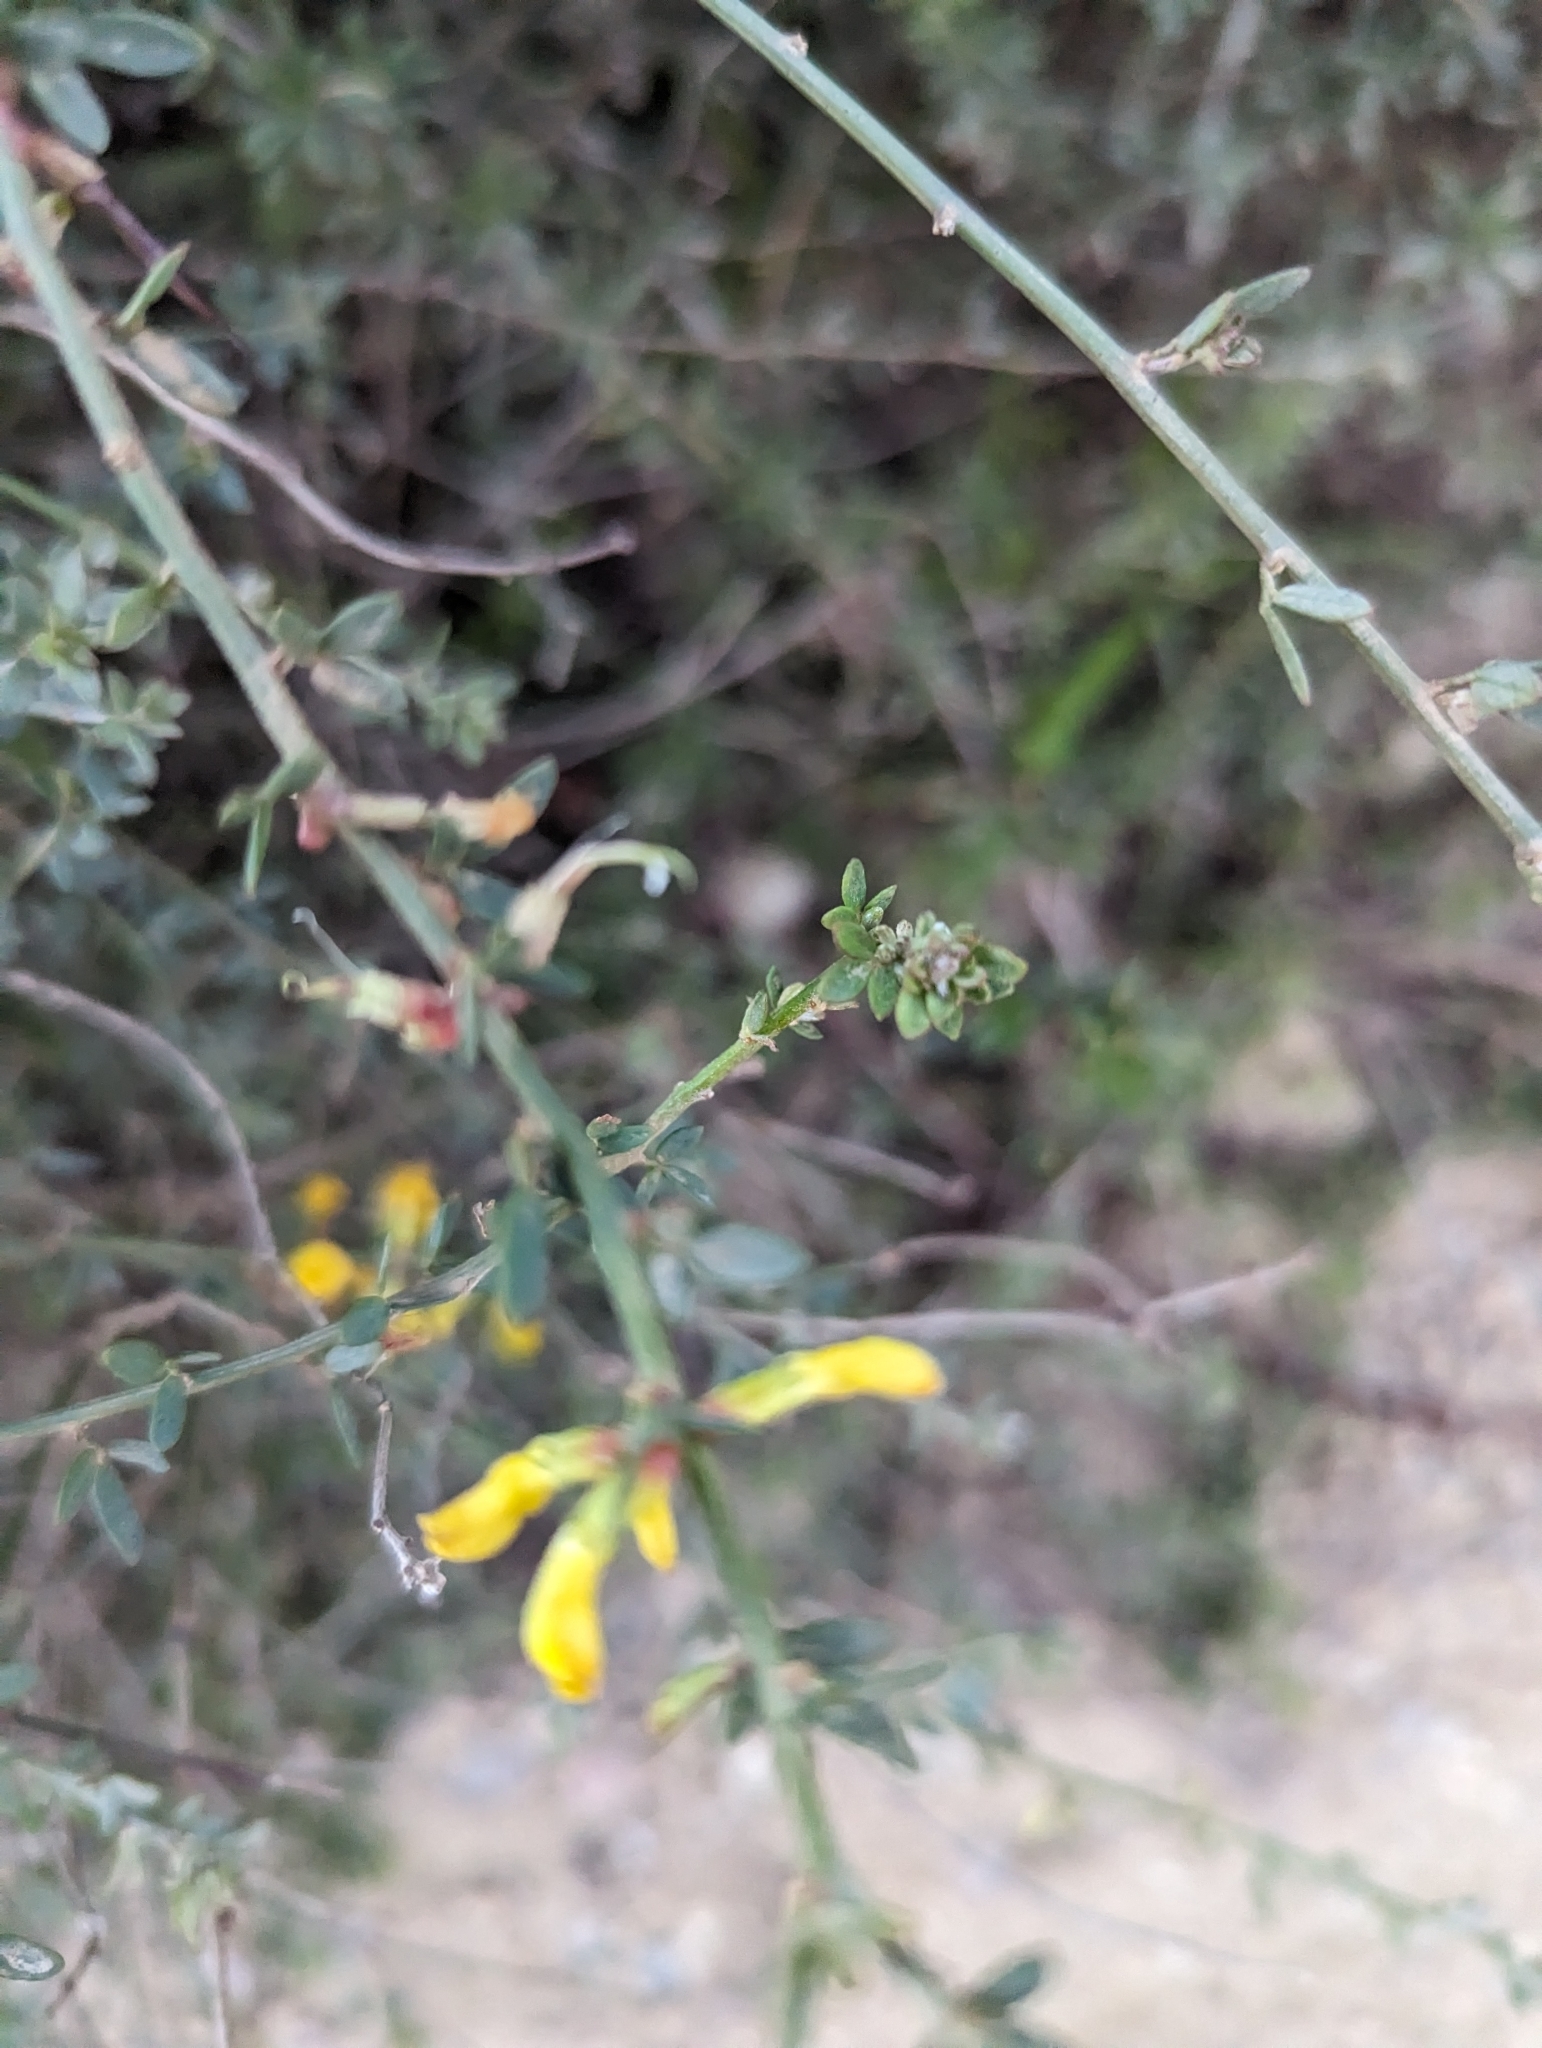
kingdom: Plantae
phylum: Tracheophyta
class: Magnoliopsida
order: Fabales
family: Fabaceae
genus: Acmispon
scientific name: Acmispon glaber
